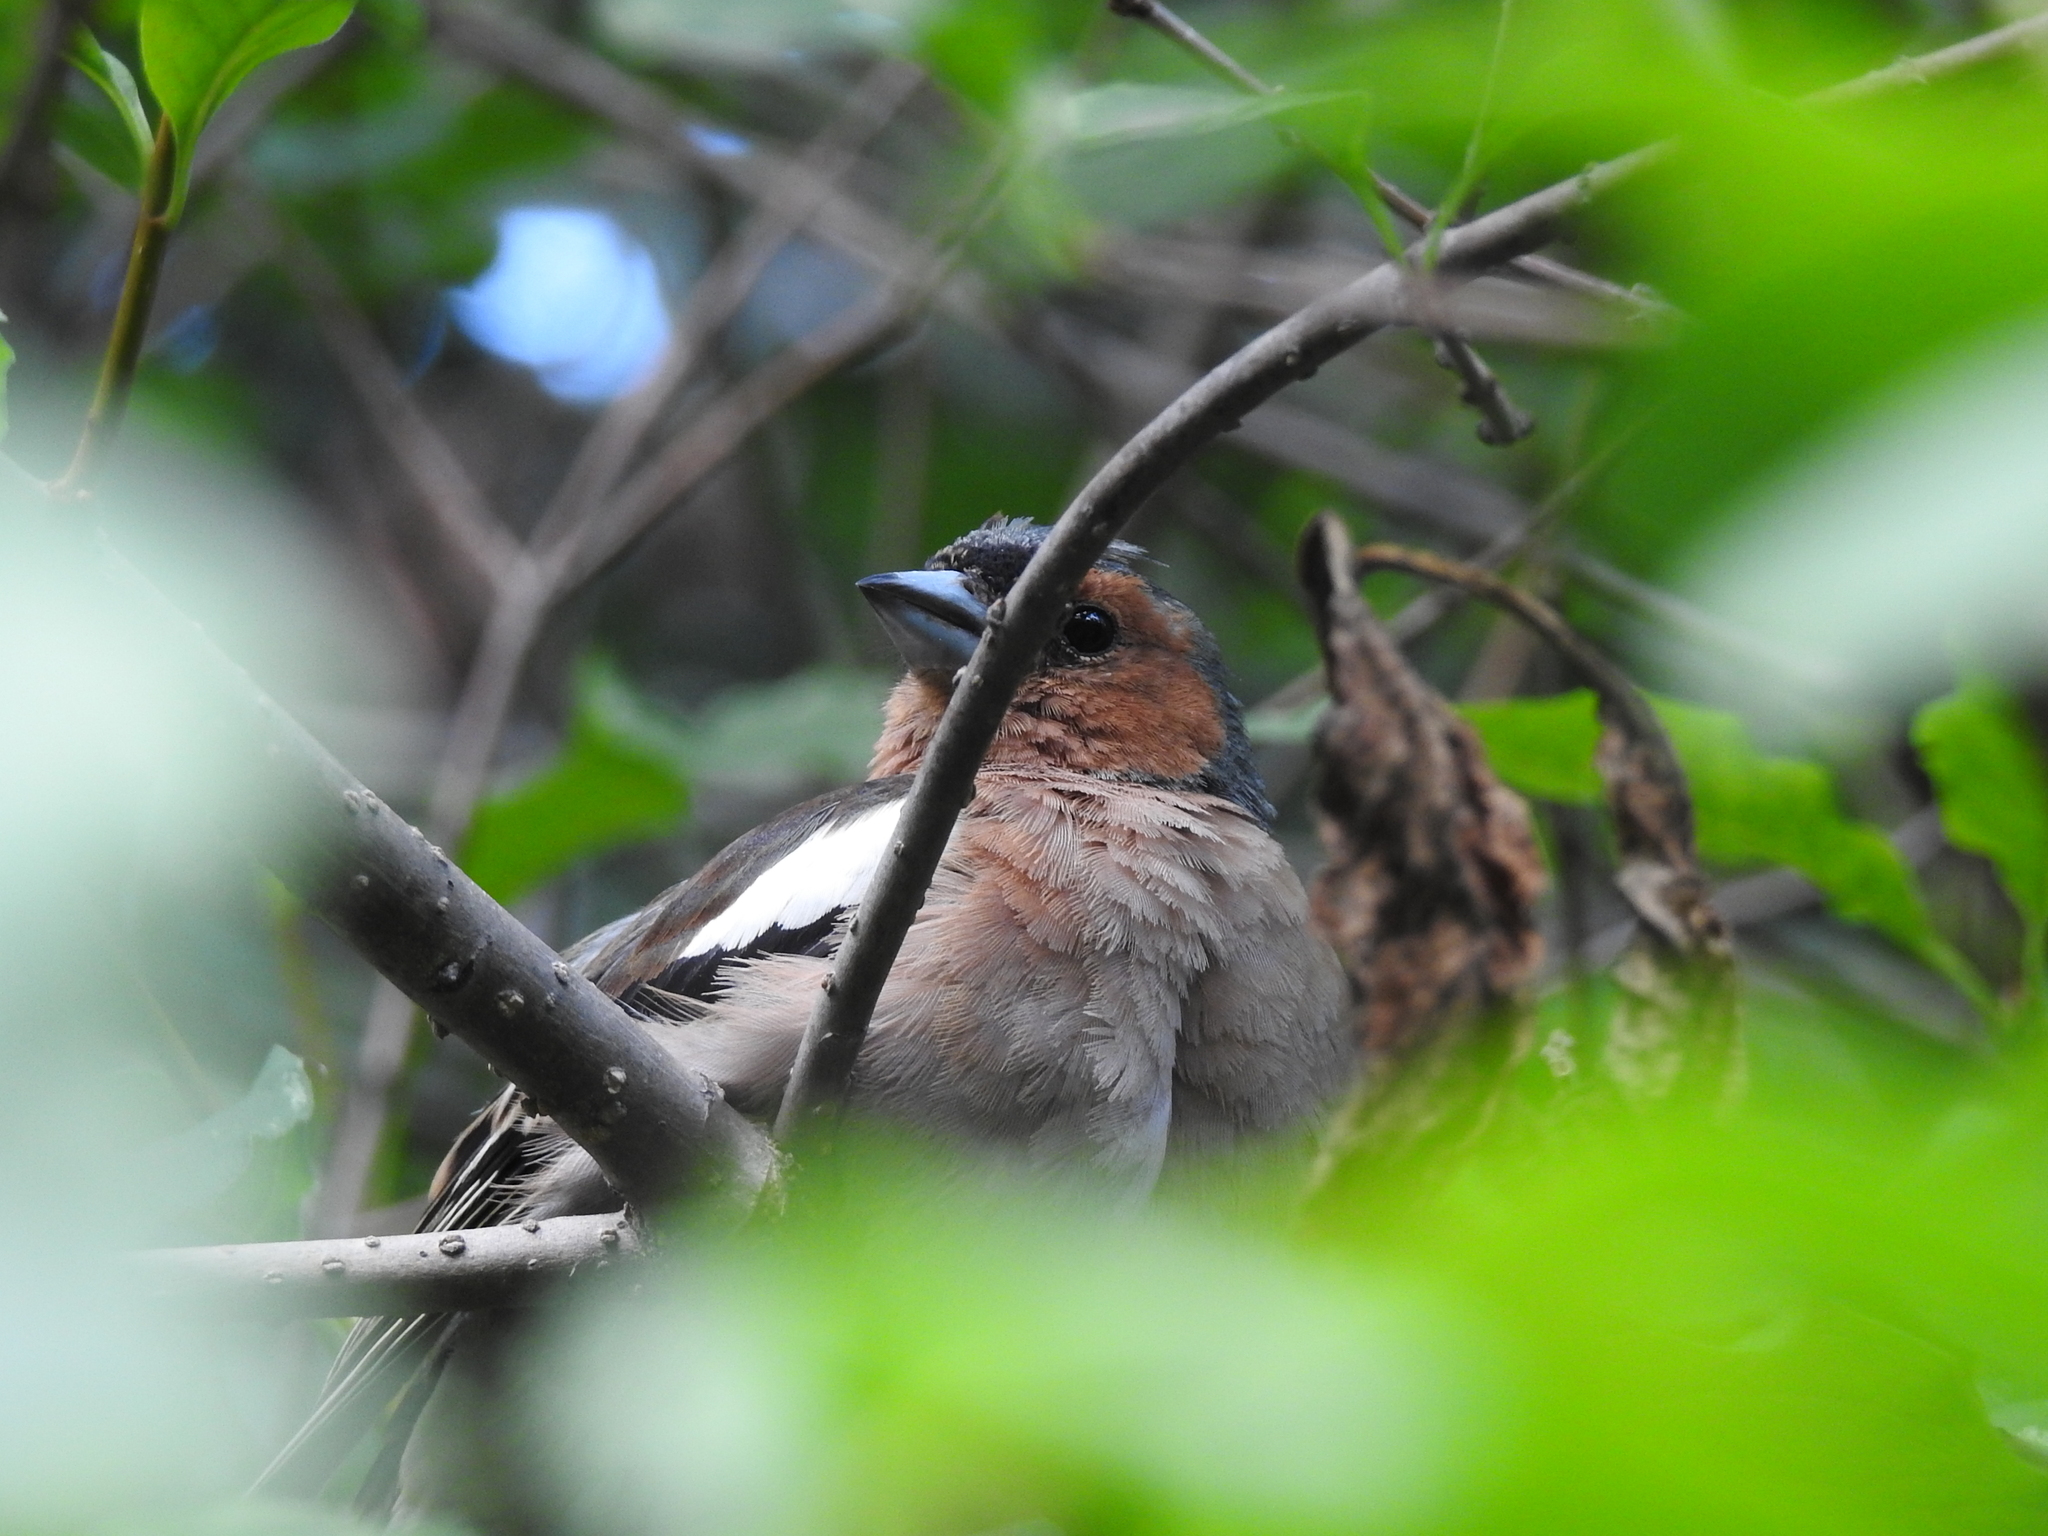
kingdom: Animalia
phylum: Chordata
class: Aves
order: Passeriformes
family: Fringillidae
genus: Fringilla
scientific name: Fringilla coelebs
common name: Common chaffinch
